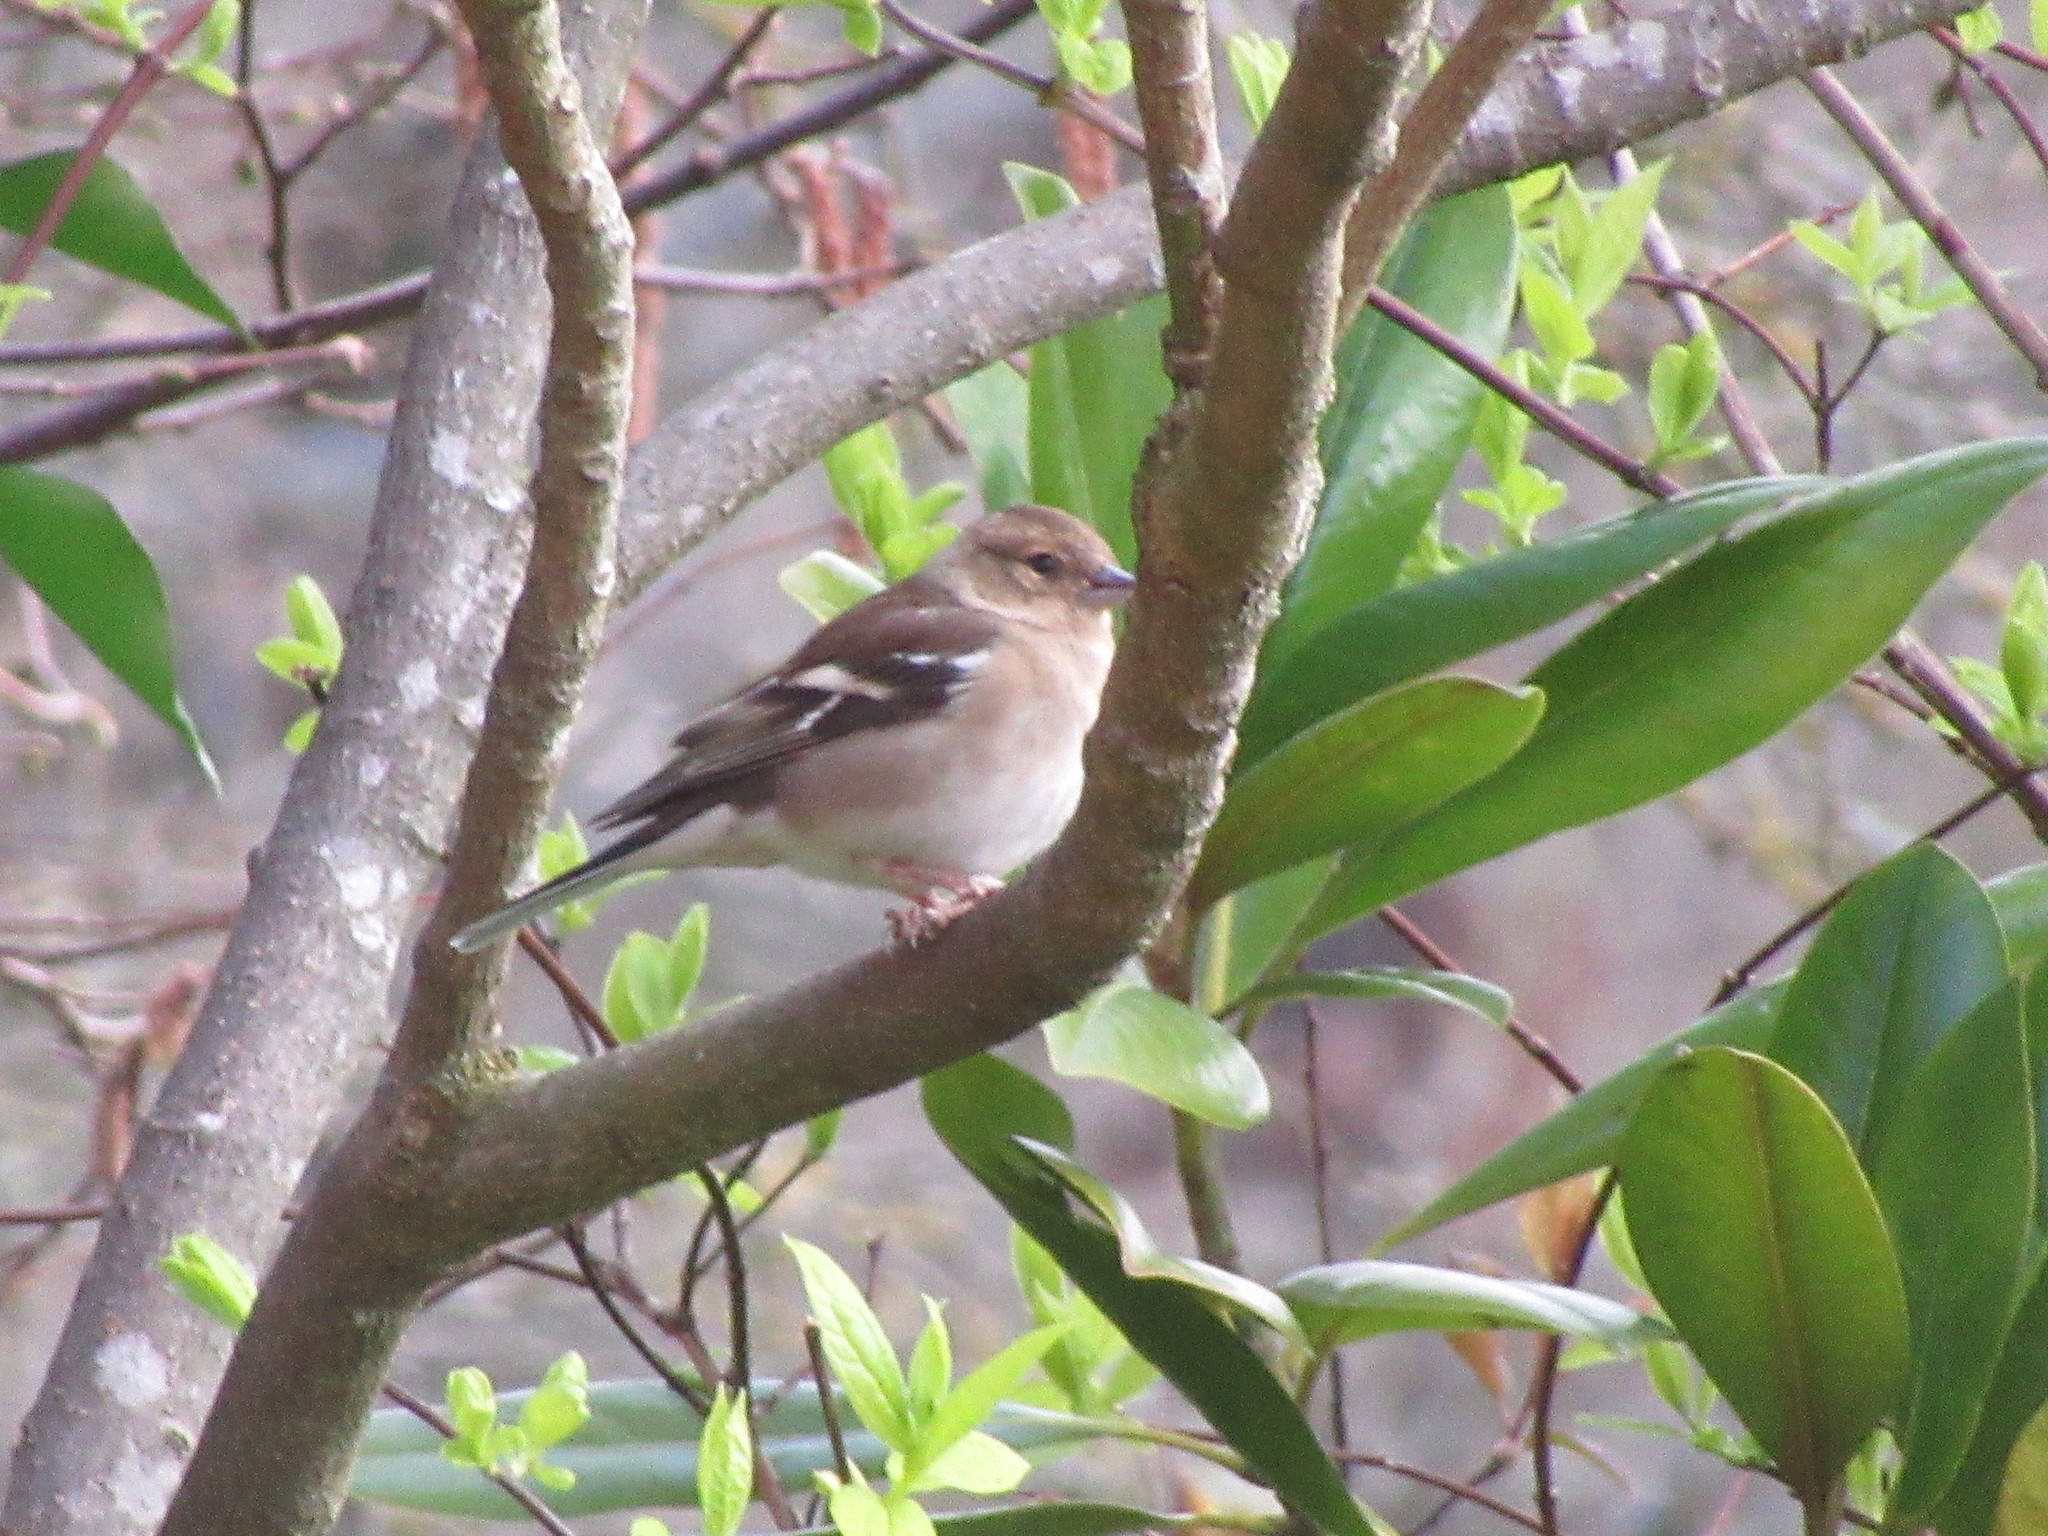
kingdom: Animalia
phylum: Chordata
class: Aves
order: Passeriformes
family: Fringillidae
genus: Fringilla
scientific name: Fringilla coelebs
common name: Common chaffinch
